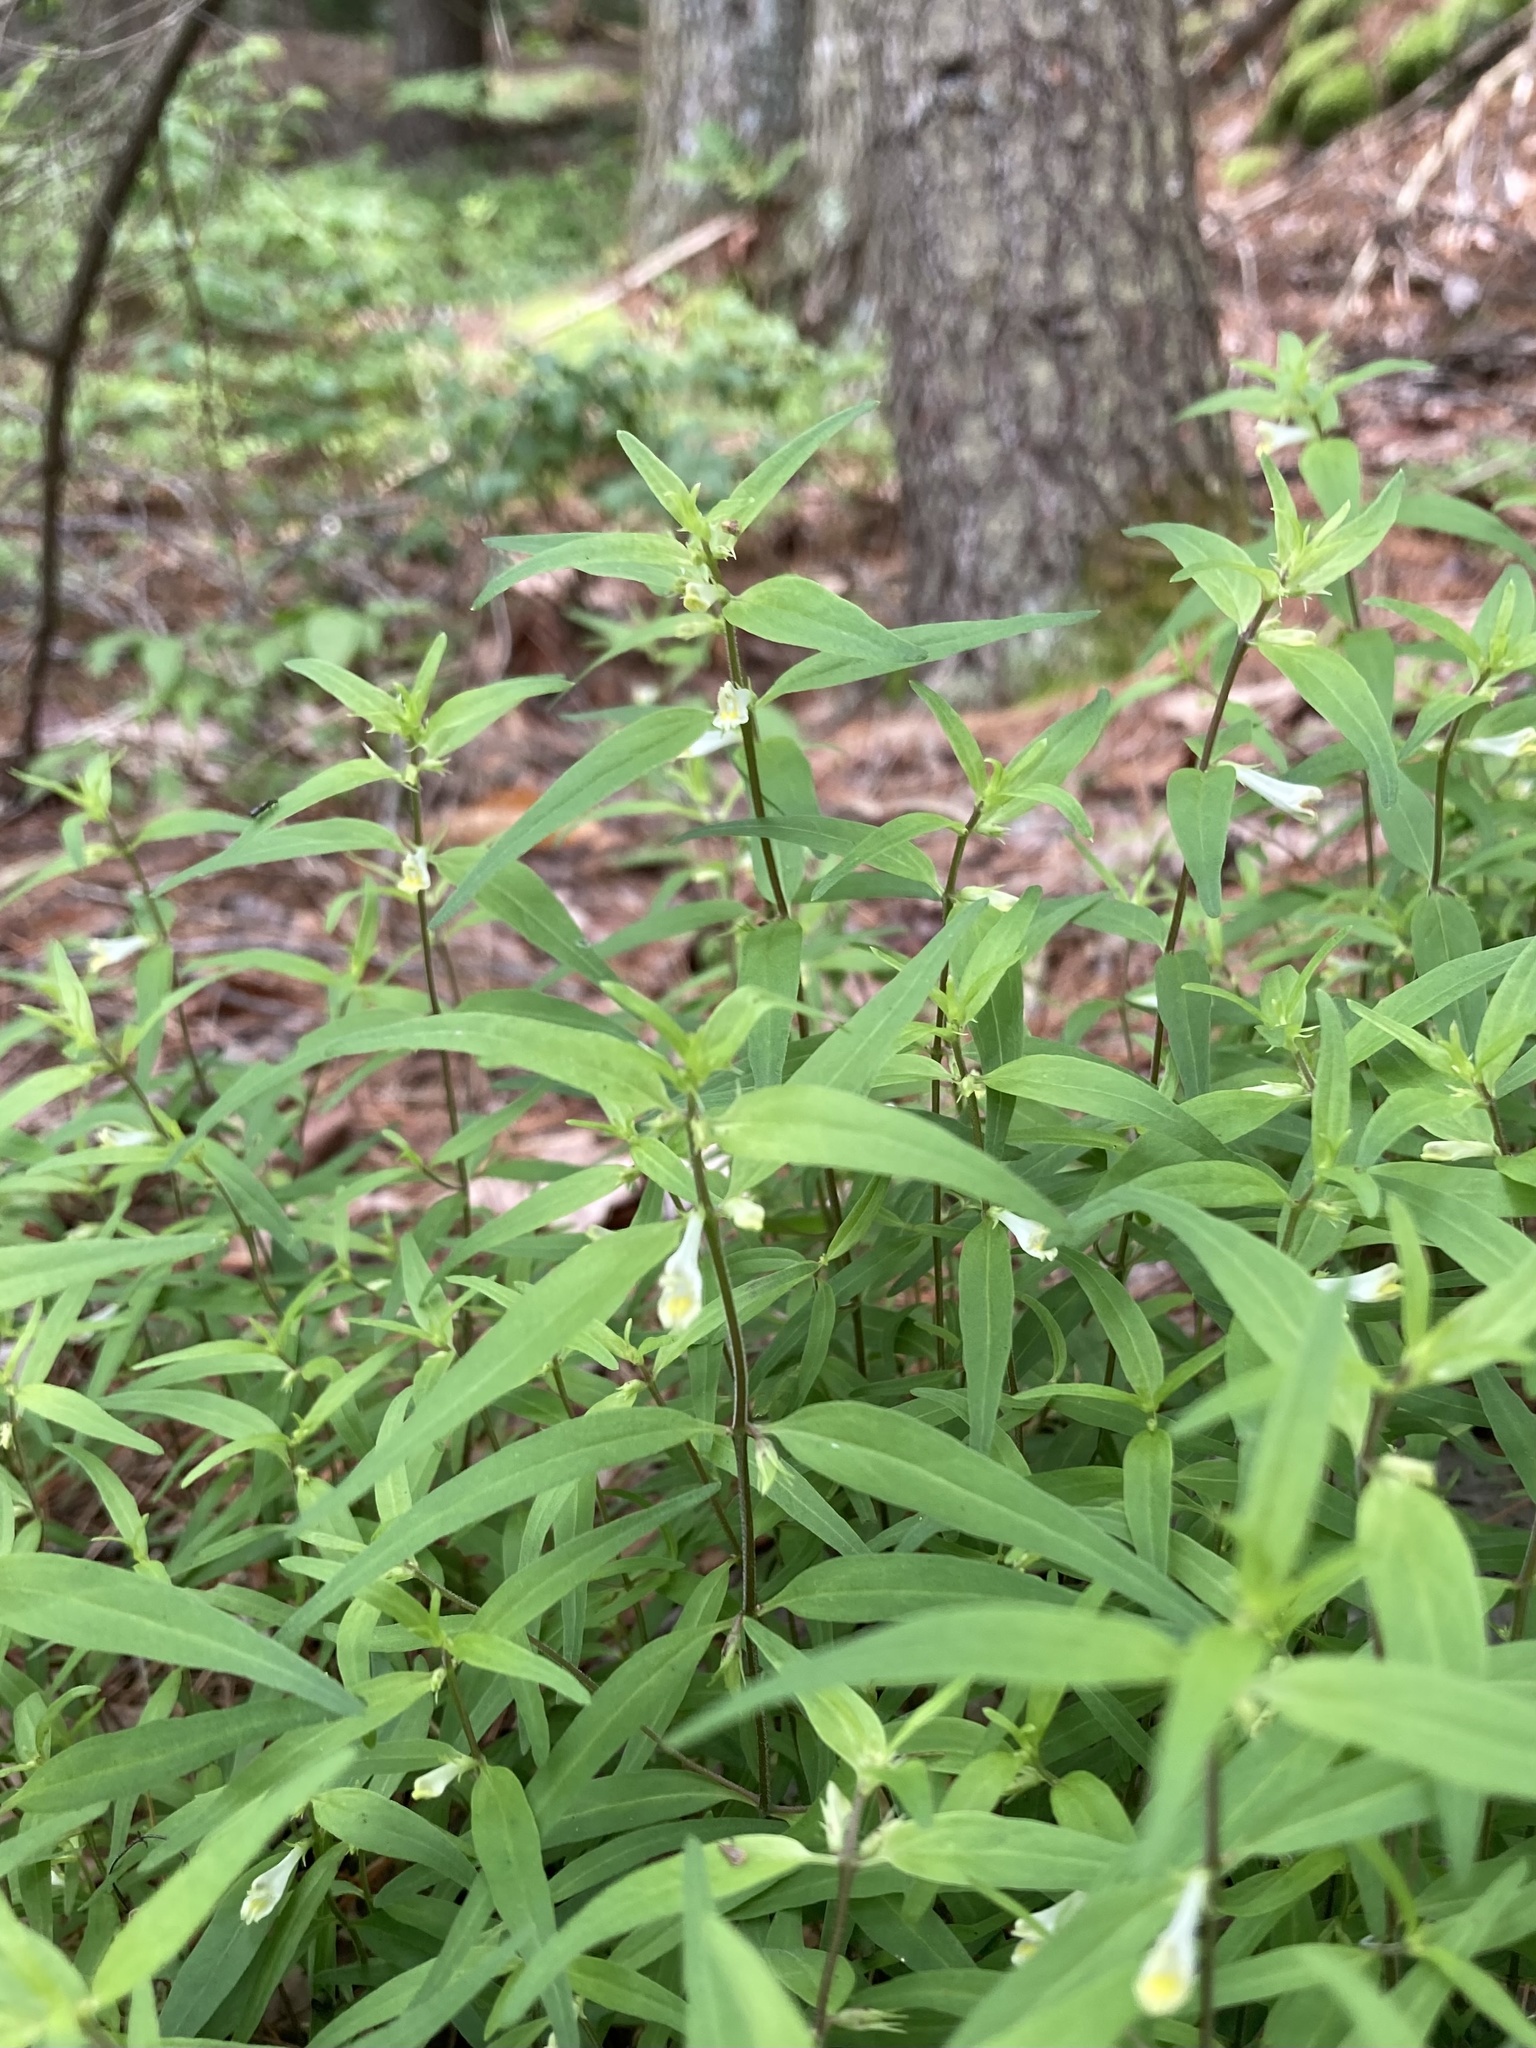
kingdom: Plantae
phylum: Tracheophyta
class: Magnoliopsida
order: Lamiales
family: Orobanchaceae
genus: Melampyrum
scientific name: Melampyrum lineare
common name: American cow-wheat
